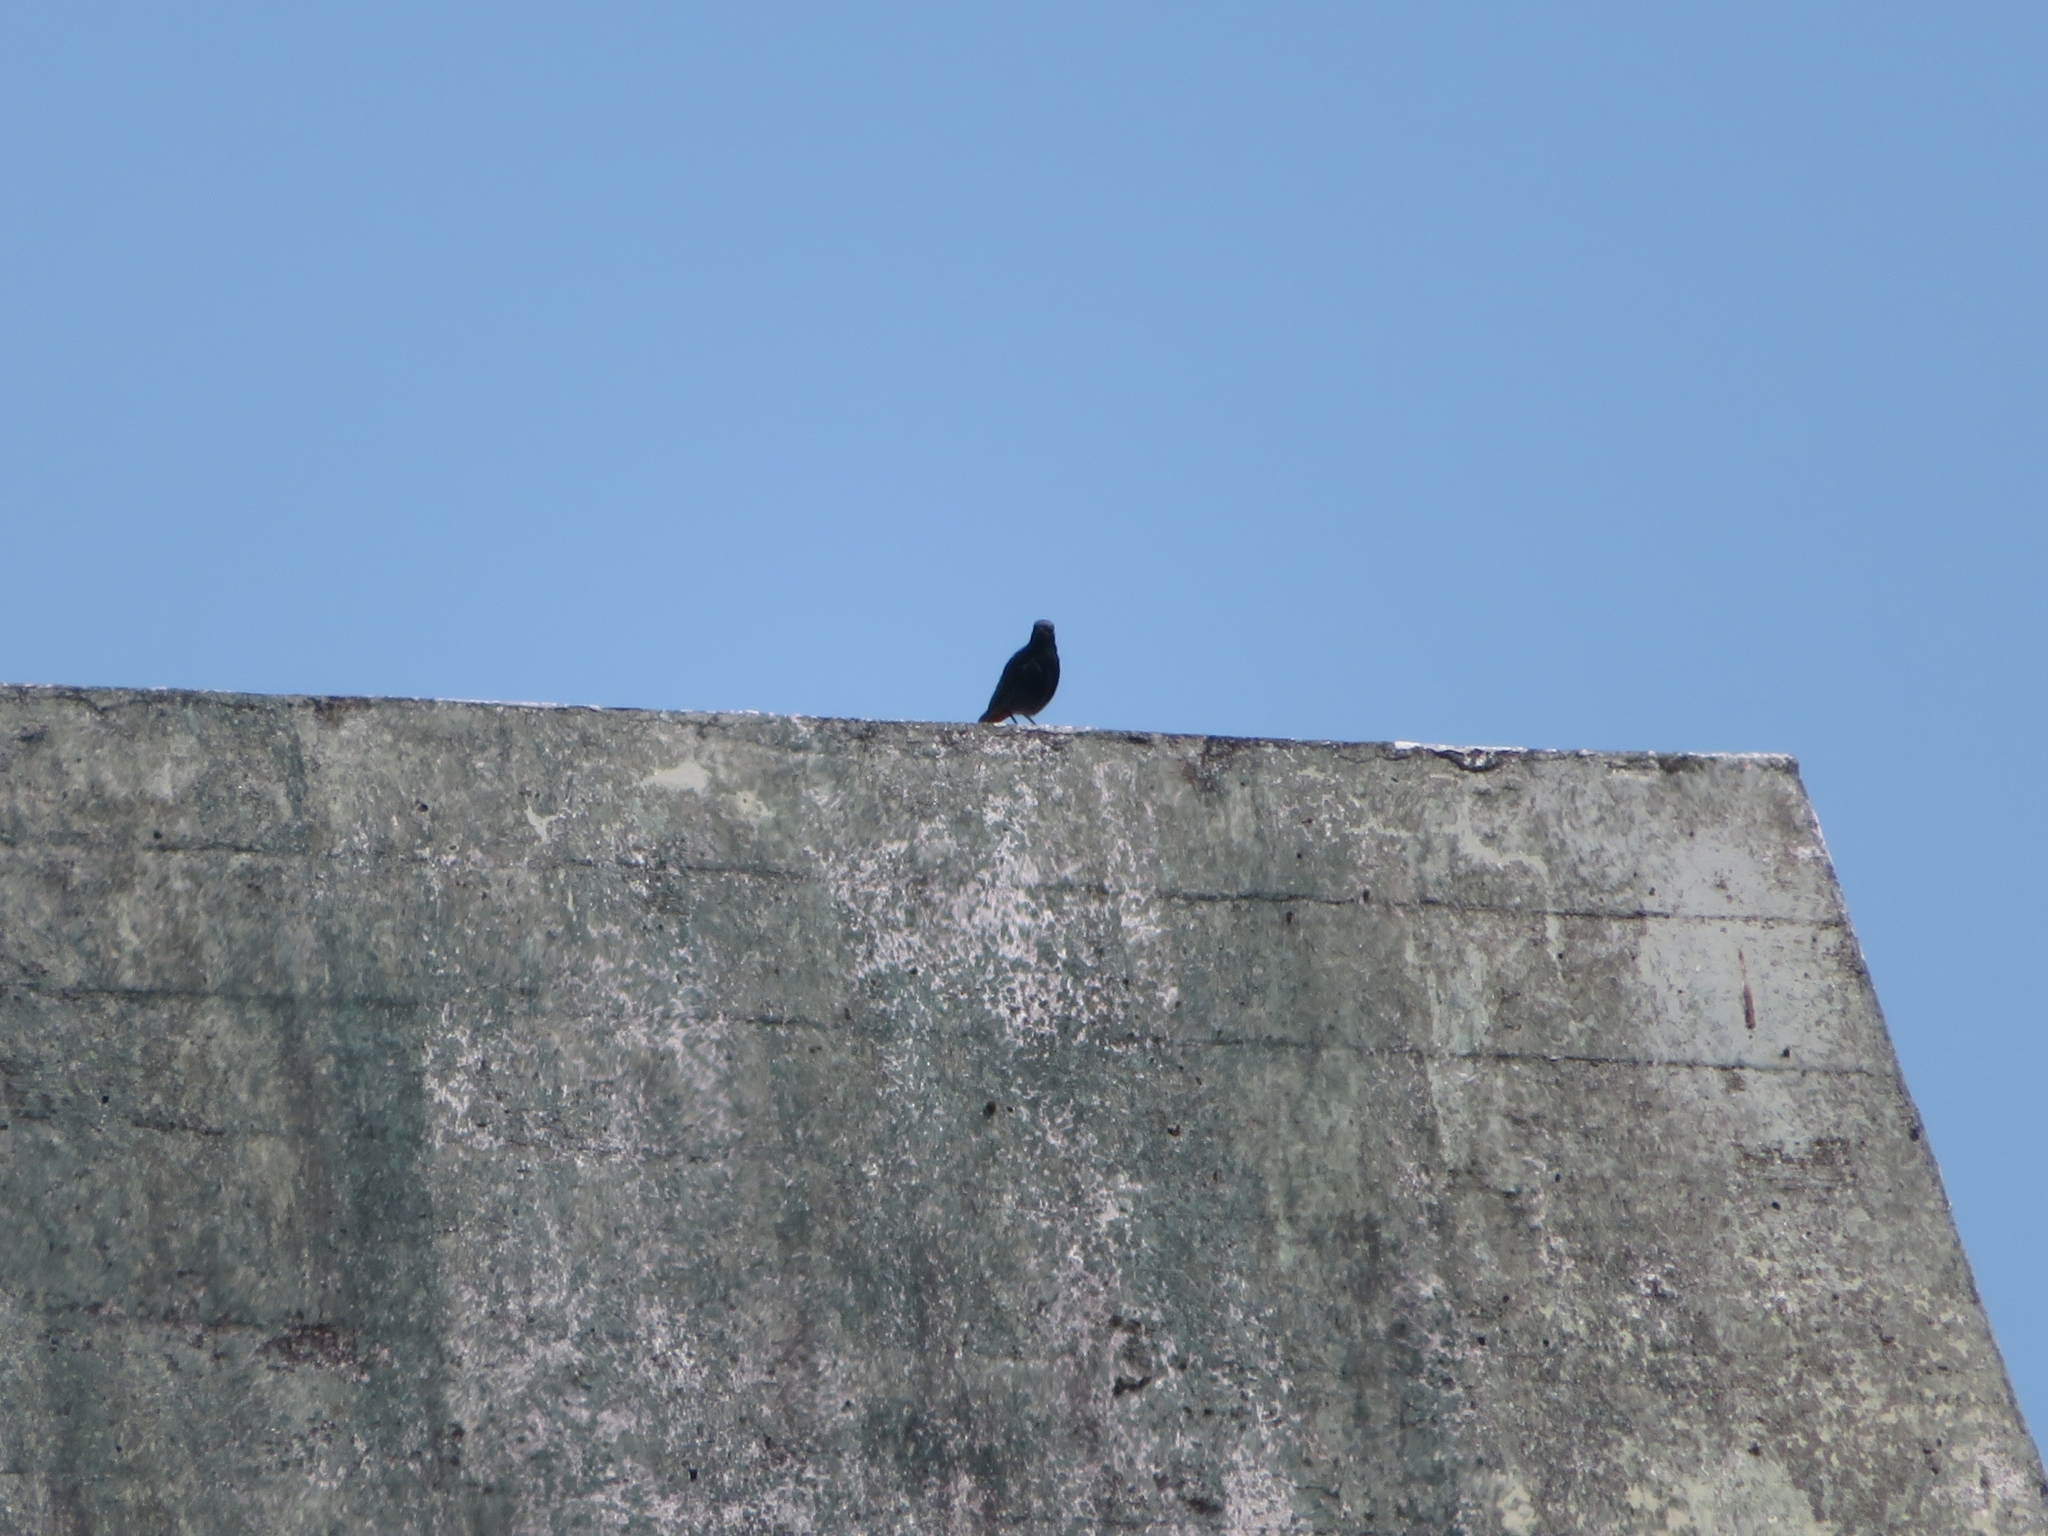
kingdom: Animalia
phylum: Chordata
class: Aves
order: Passeriformes
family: Sturnidae
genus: Sturnus
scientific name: Sturnus unicolor
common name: Spotless starling
